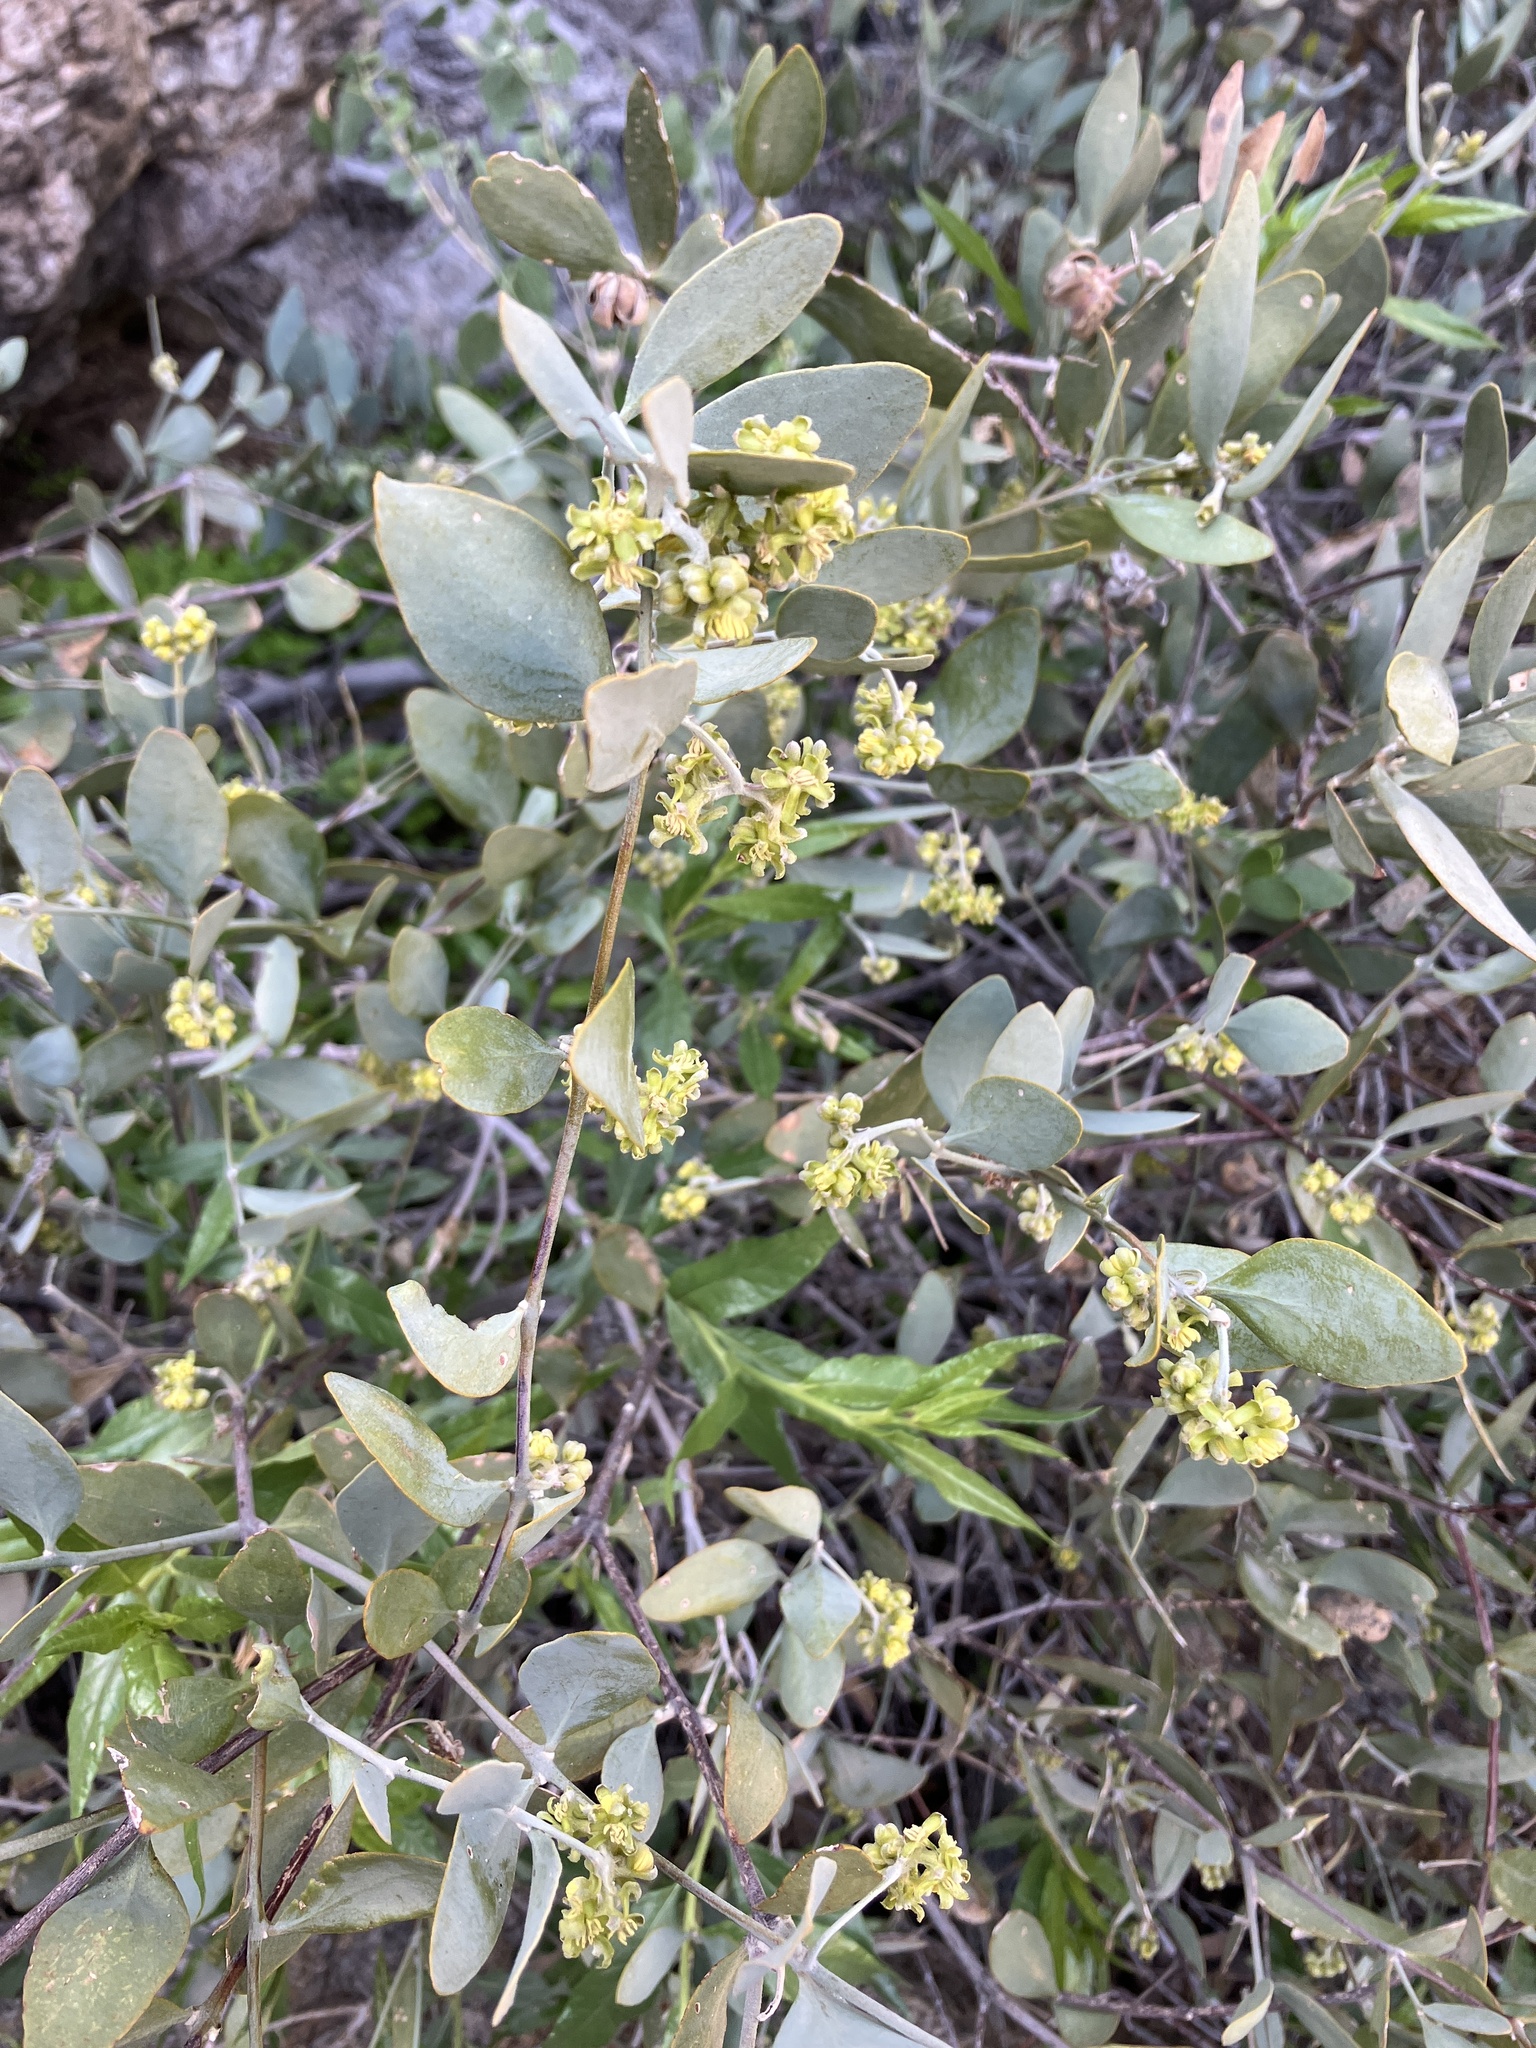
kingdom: Plantae
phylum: Tracheophyta
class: Magnoliopsida
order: Caryophyllales
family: Simmondsiaceae
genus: Simmondsia
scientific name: Simmondsia chinensis
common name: Jojoba
